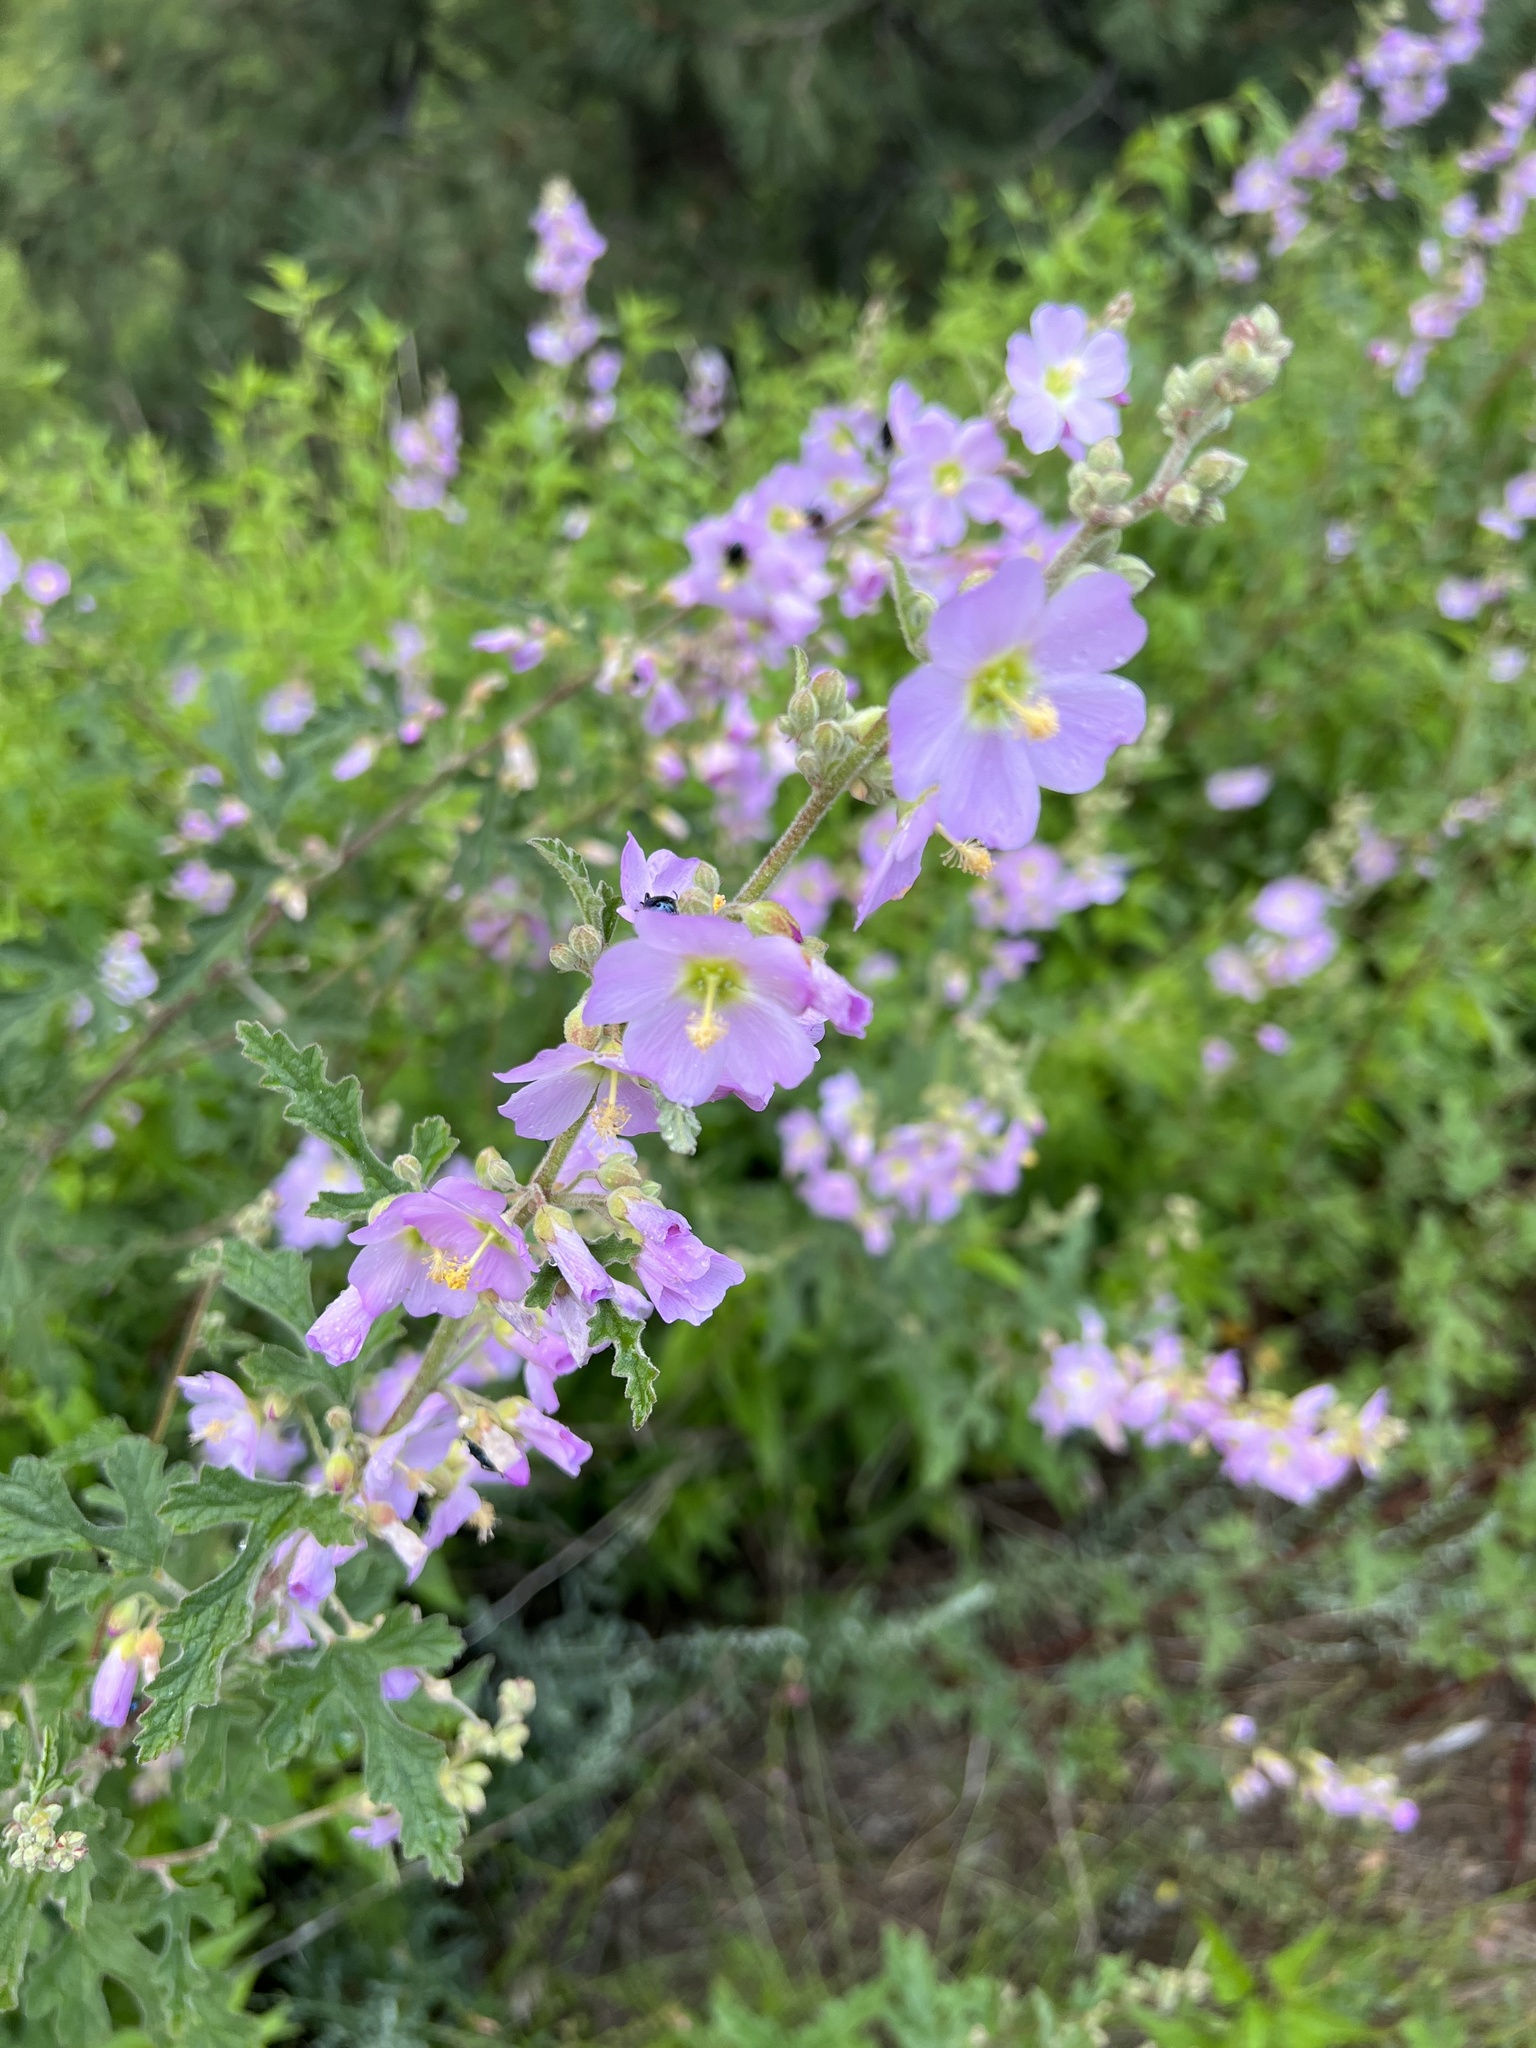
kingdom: Plantae
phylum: Tracheophyta
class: Magnoliopsida
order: Malvales
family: Malvaceae
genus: Sphaeralcea
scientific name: Sphaeralcea fendleri
